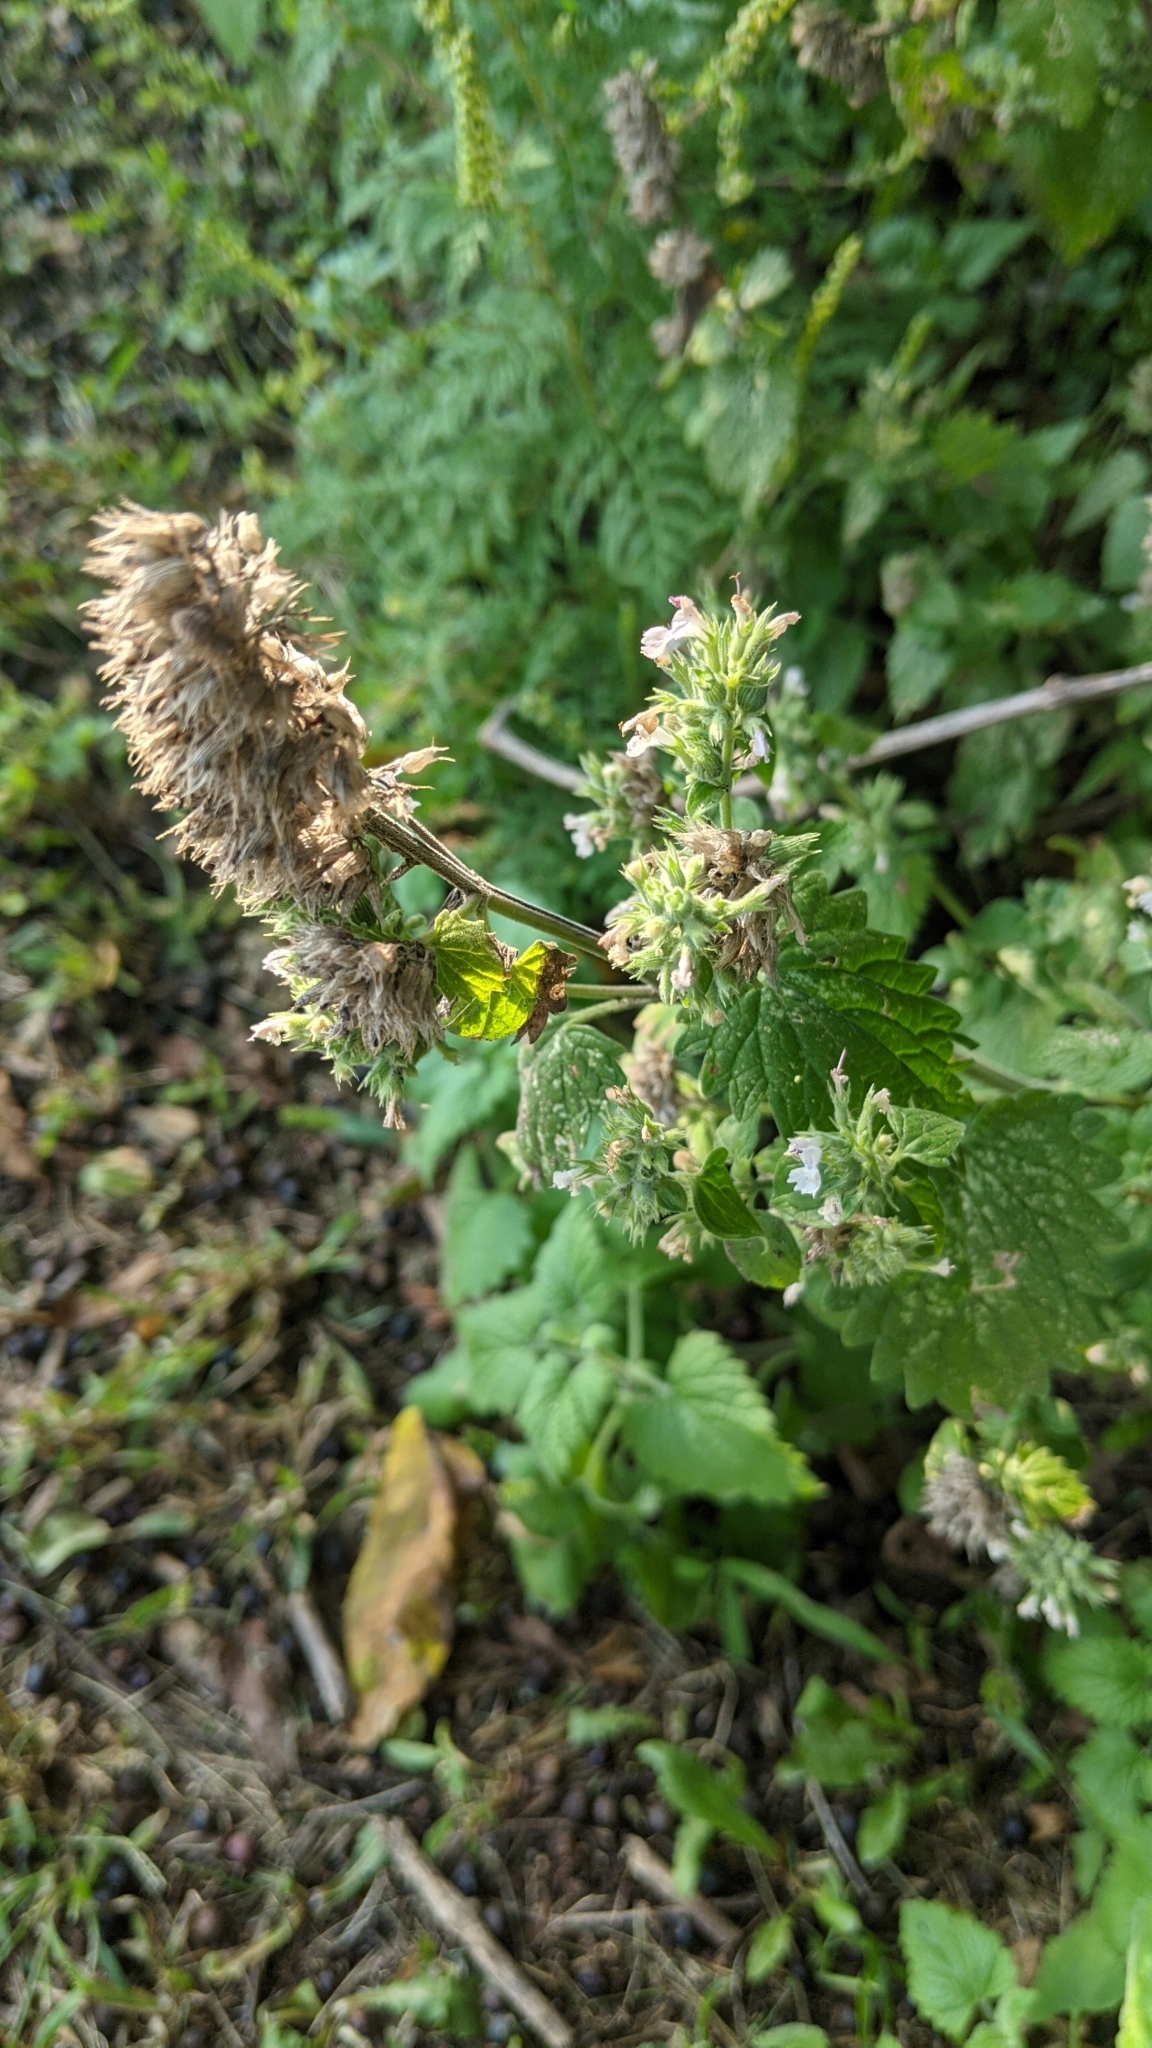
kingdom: Plantae
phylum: Tracheophyta
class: Magnoliopsida
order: Lamiales
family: Lamiaceae
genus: Nepeta
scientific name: Nepeta cataria
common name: Catnip
